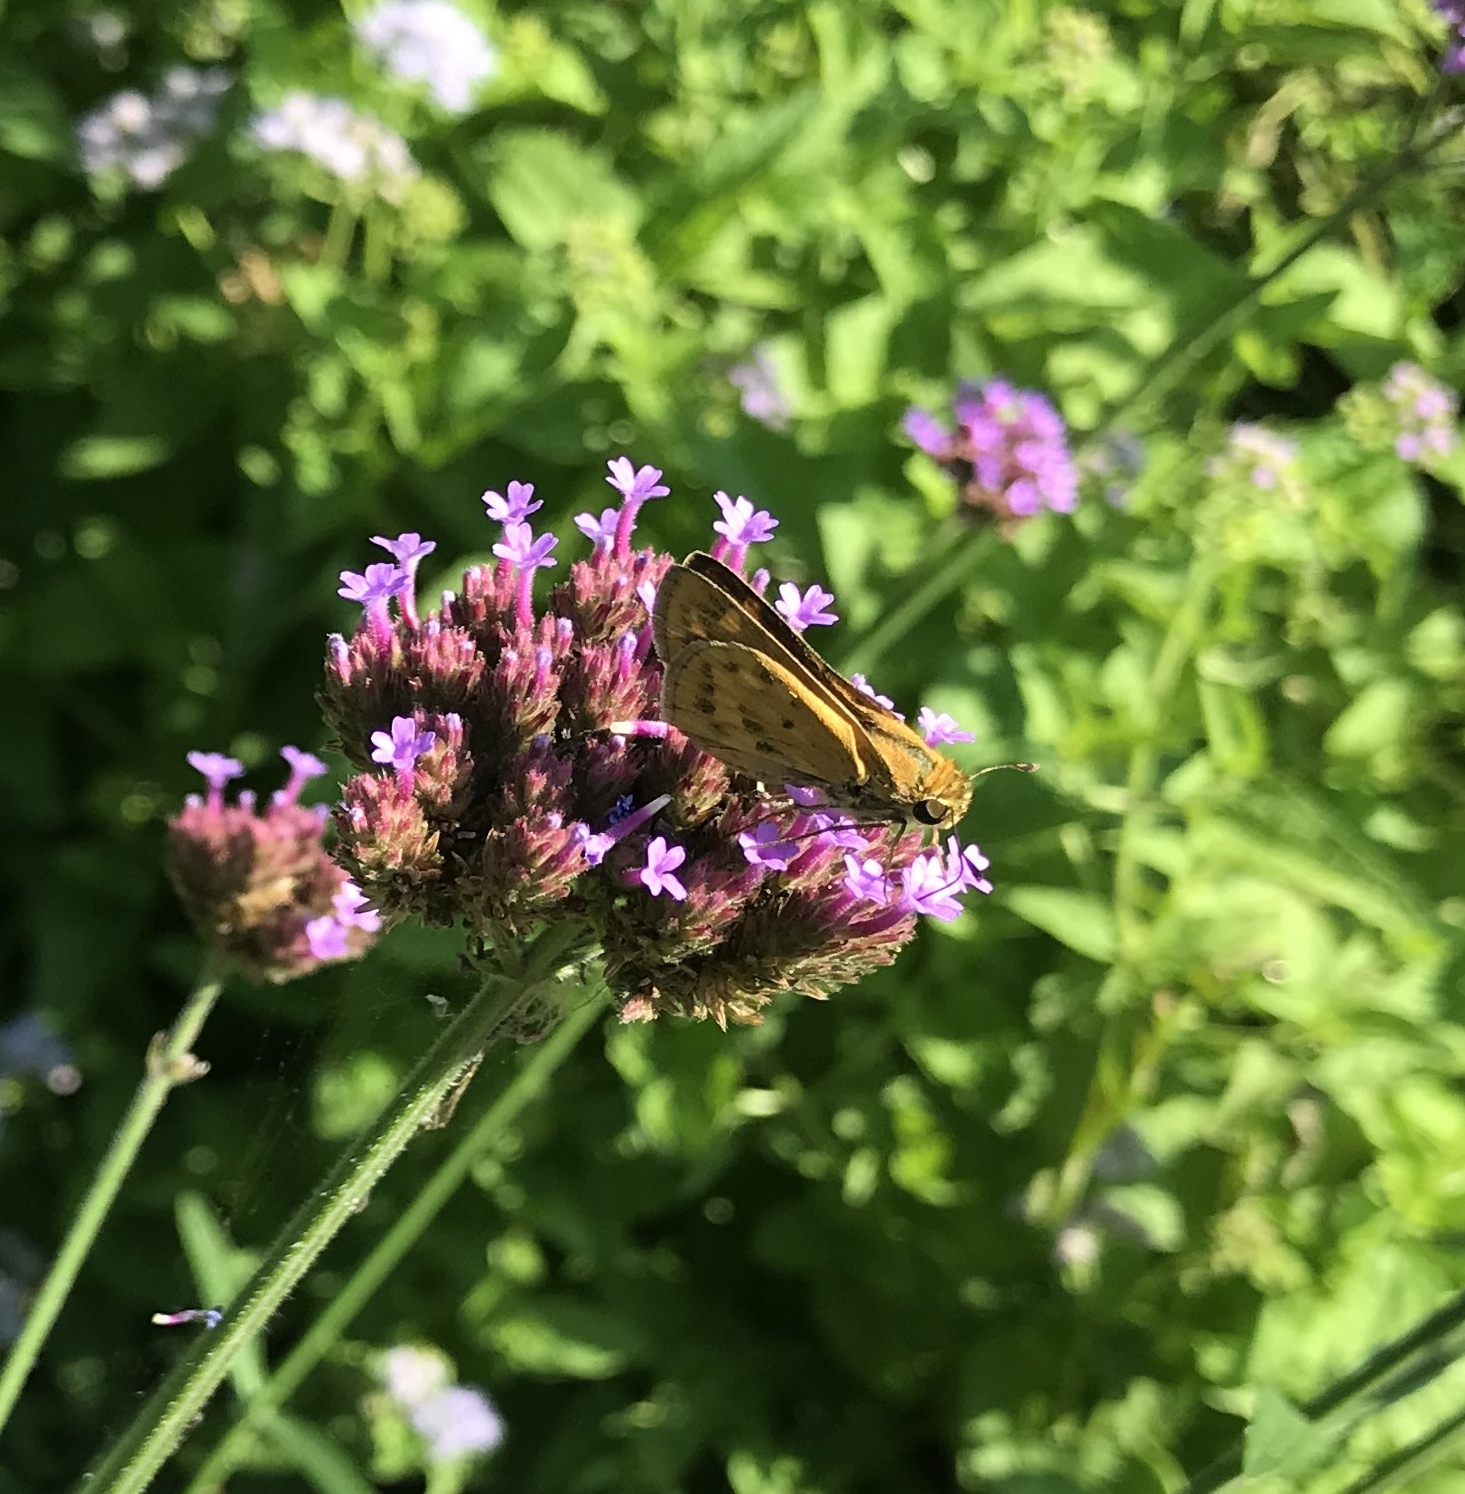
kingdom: Animalia
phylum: Arthropoda
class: Insecta
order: Lepidoptera
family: Hesperiidae
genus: Hylephila
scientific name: Hylephila phyleus
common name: Fiery skipper
